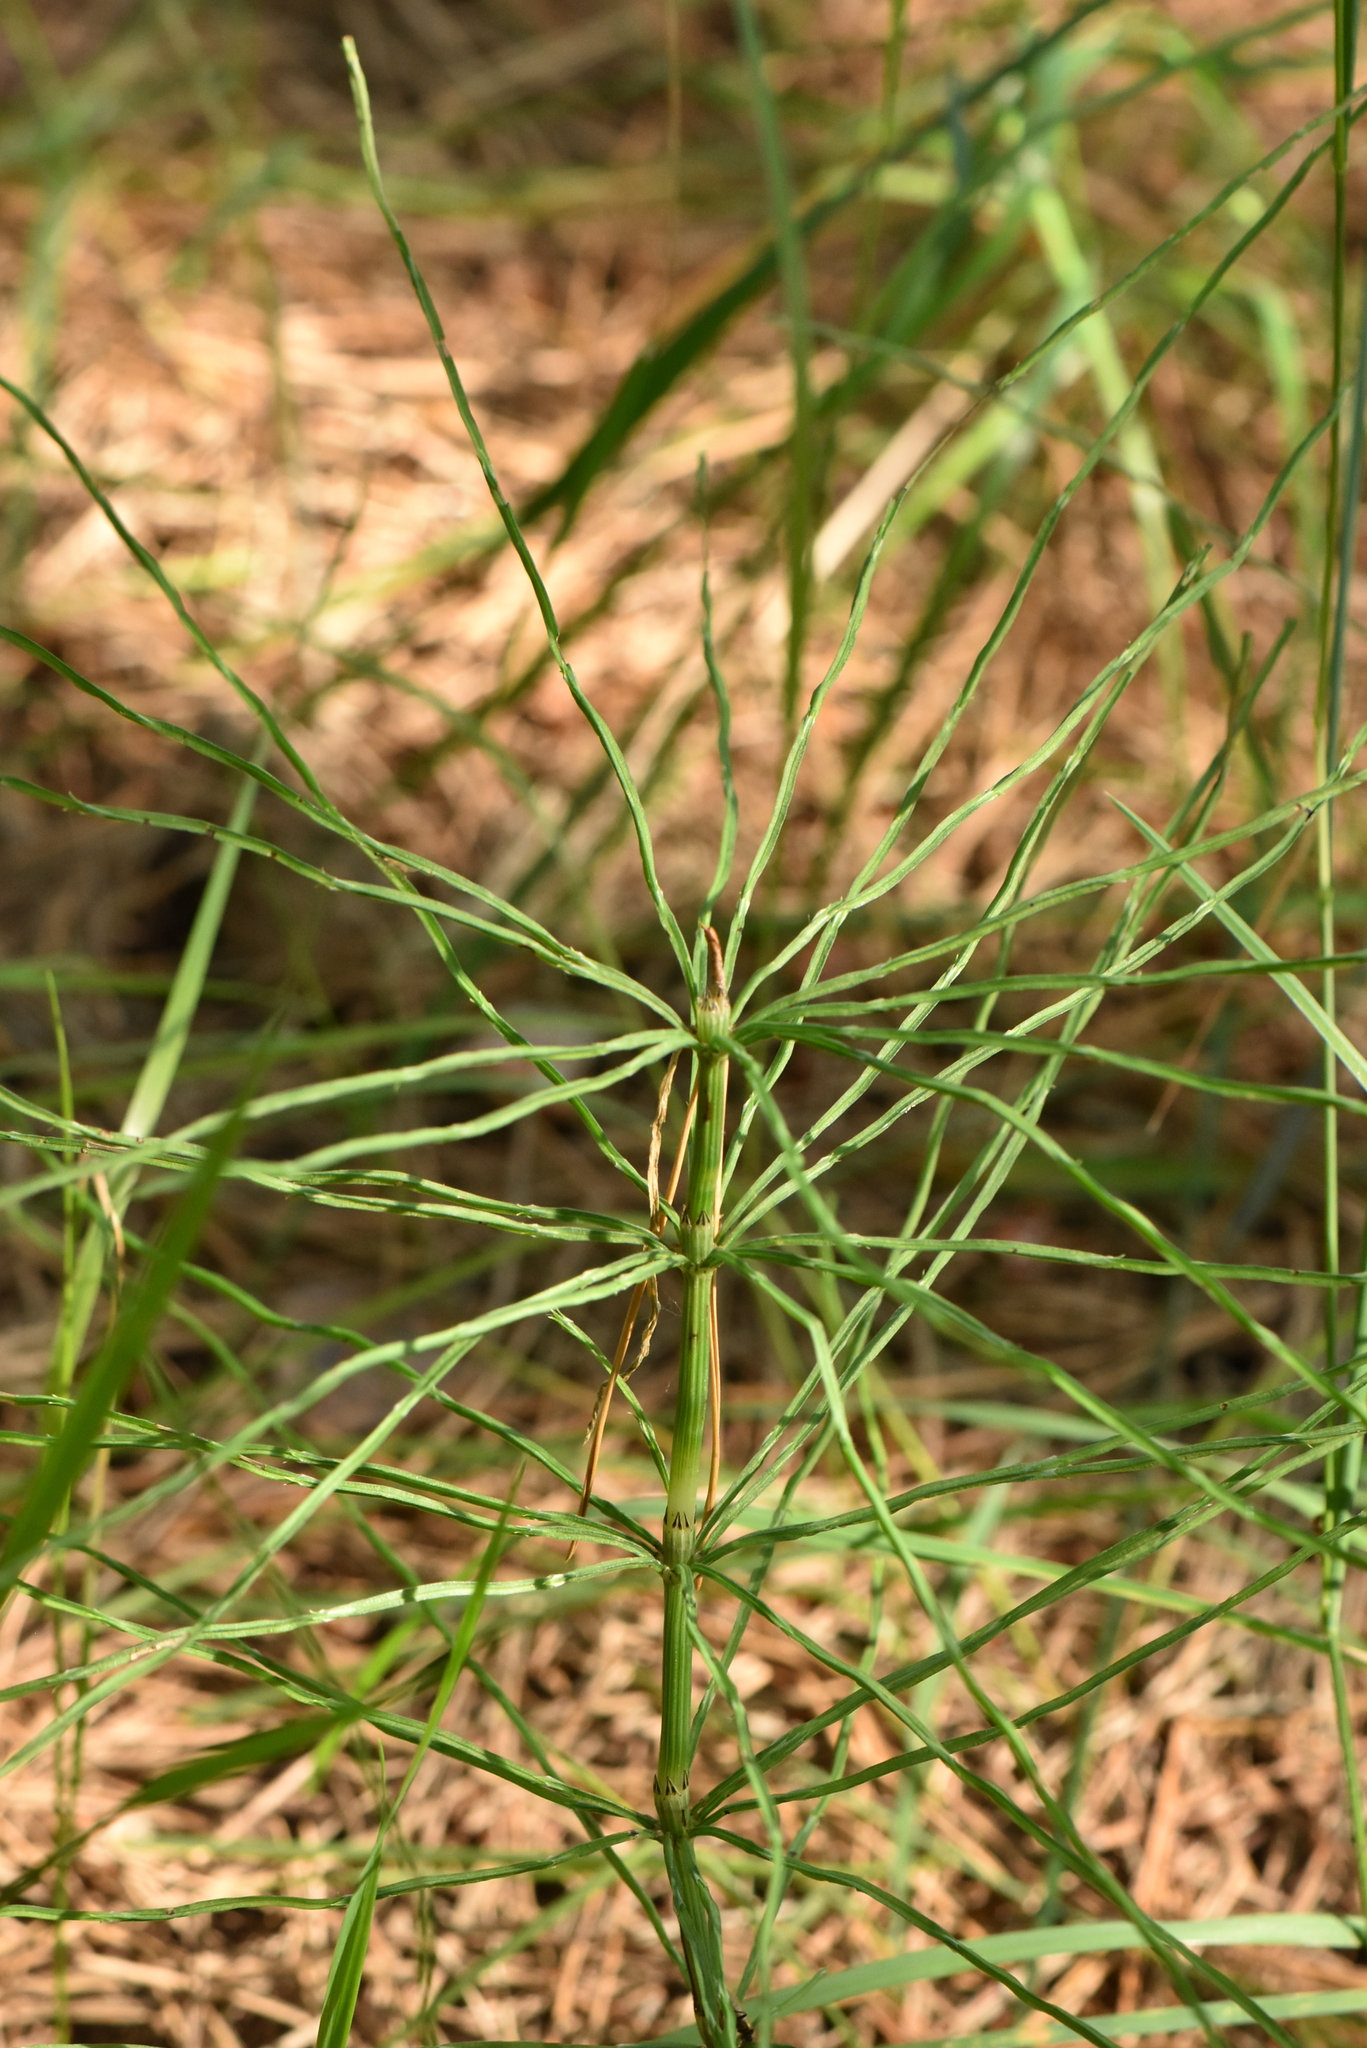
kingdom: Plantae
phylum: Tracheophyta
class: Polypodiopsida
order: Equisetales
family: Equisetaceae
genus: Equisetum
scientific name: Equisetum arvense
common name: Field horsetail
